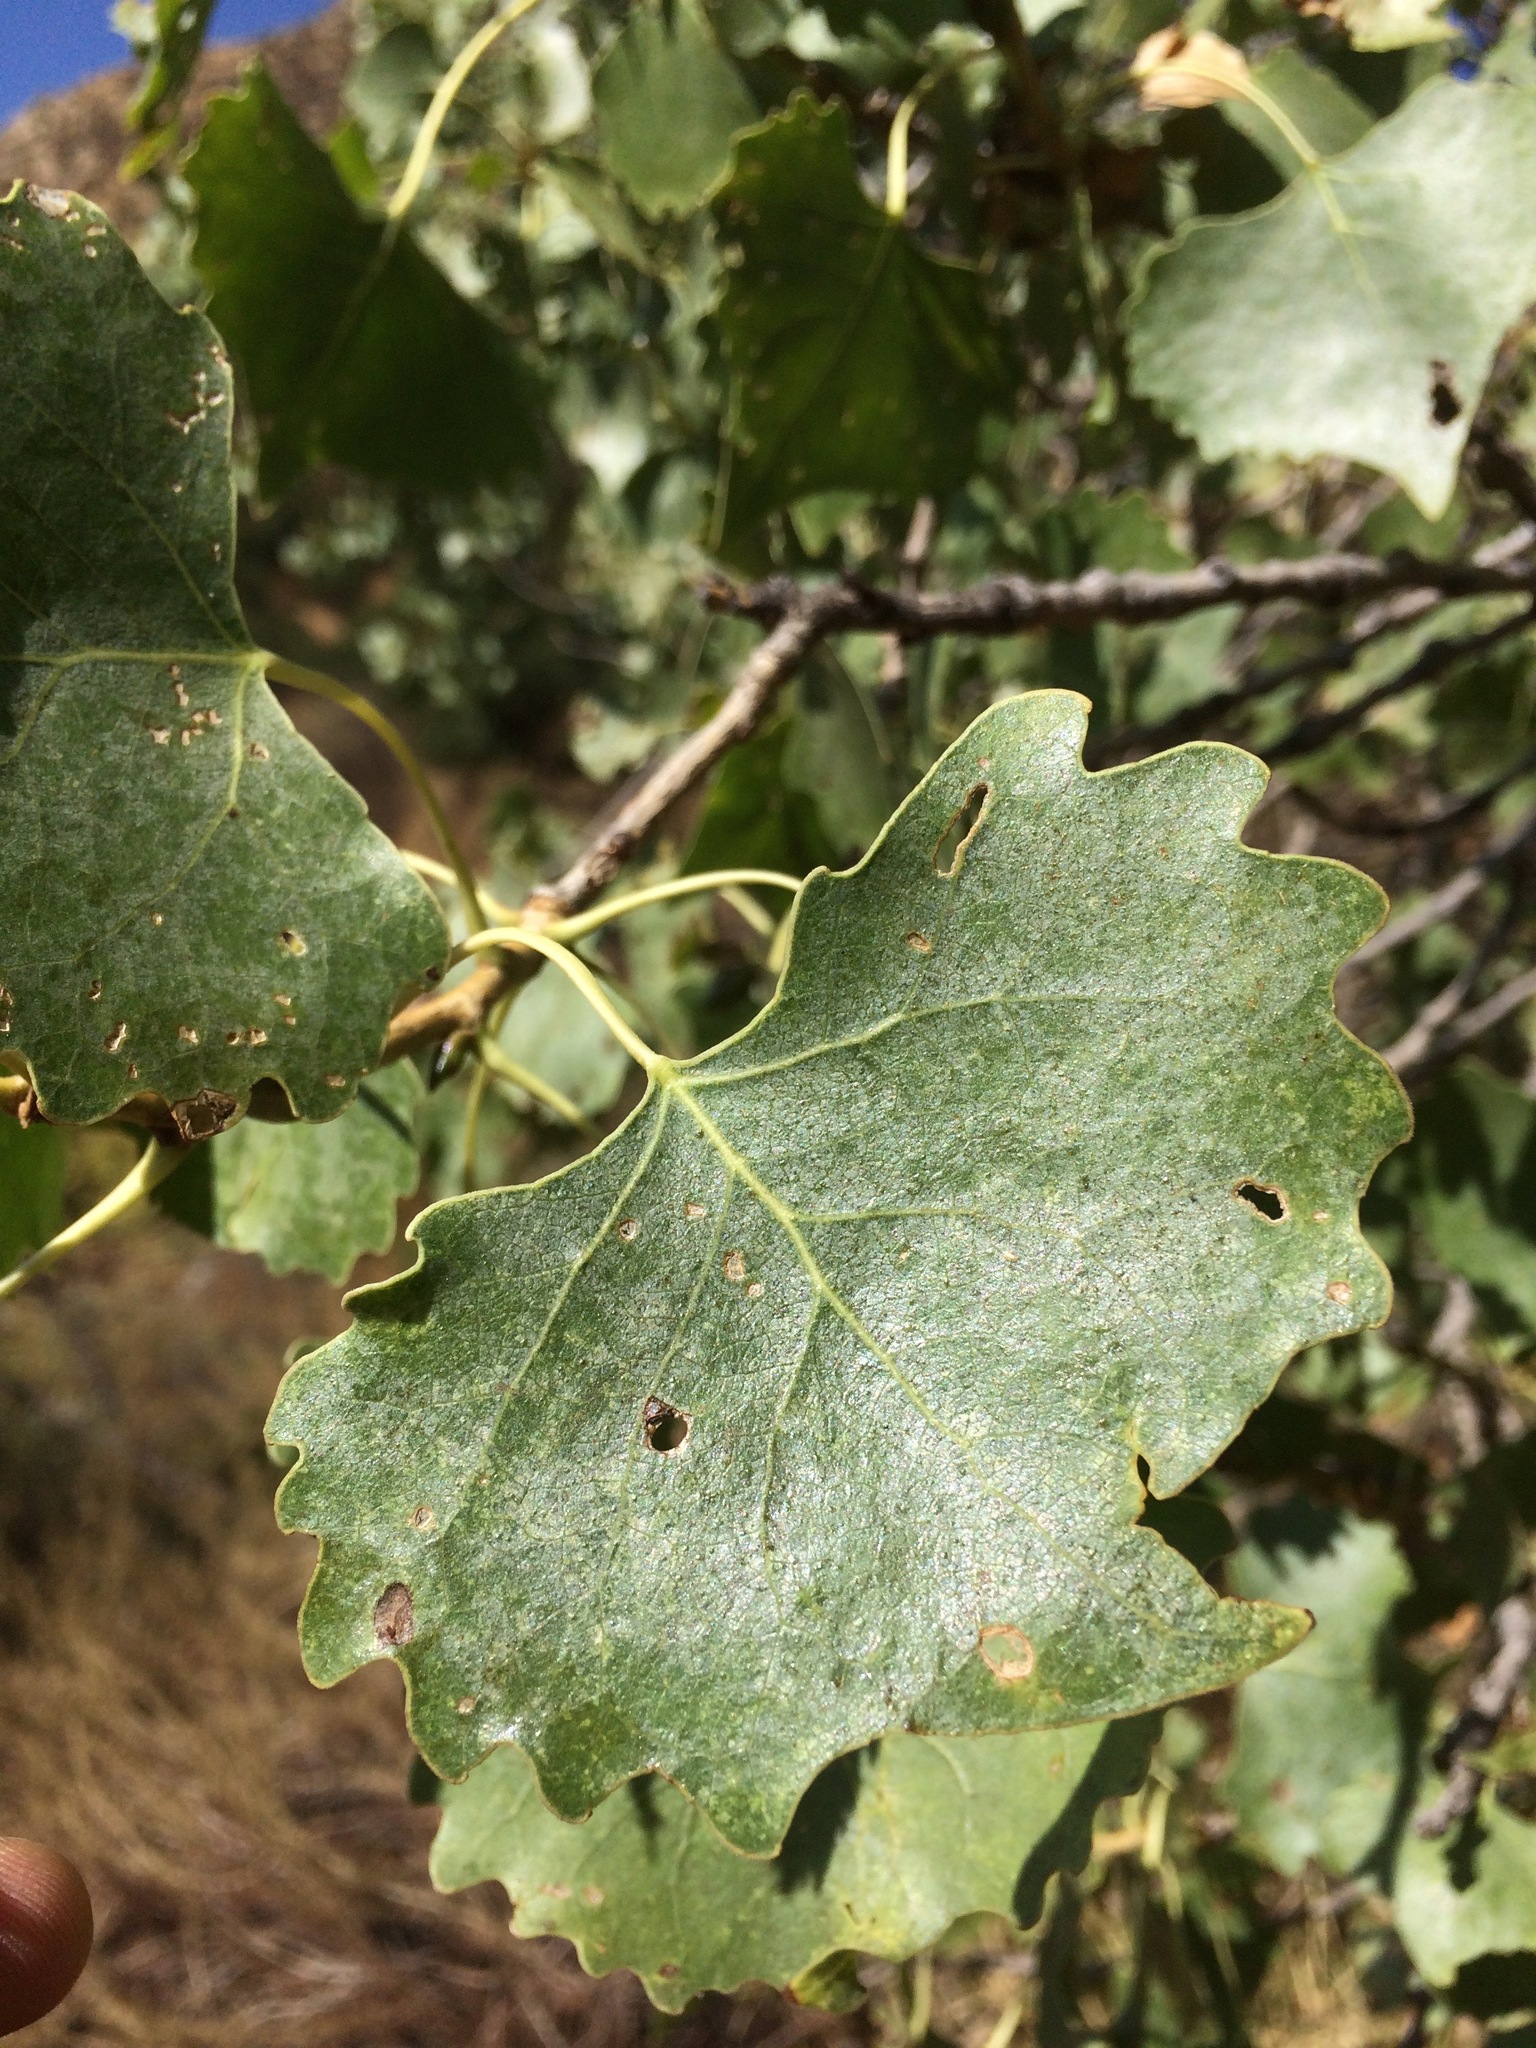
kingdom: Plantae
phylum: Tracheophyta
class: Magnoliopsida
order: Malpighiales
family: Salicaceae
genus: Populus
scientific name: Populus fremontii
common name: Fremont's cottonwood
